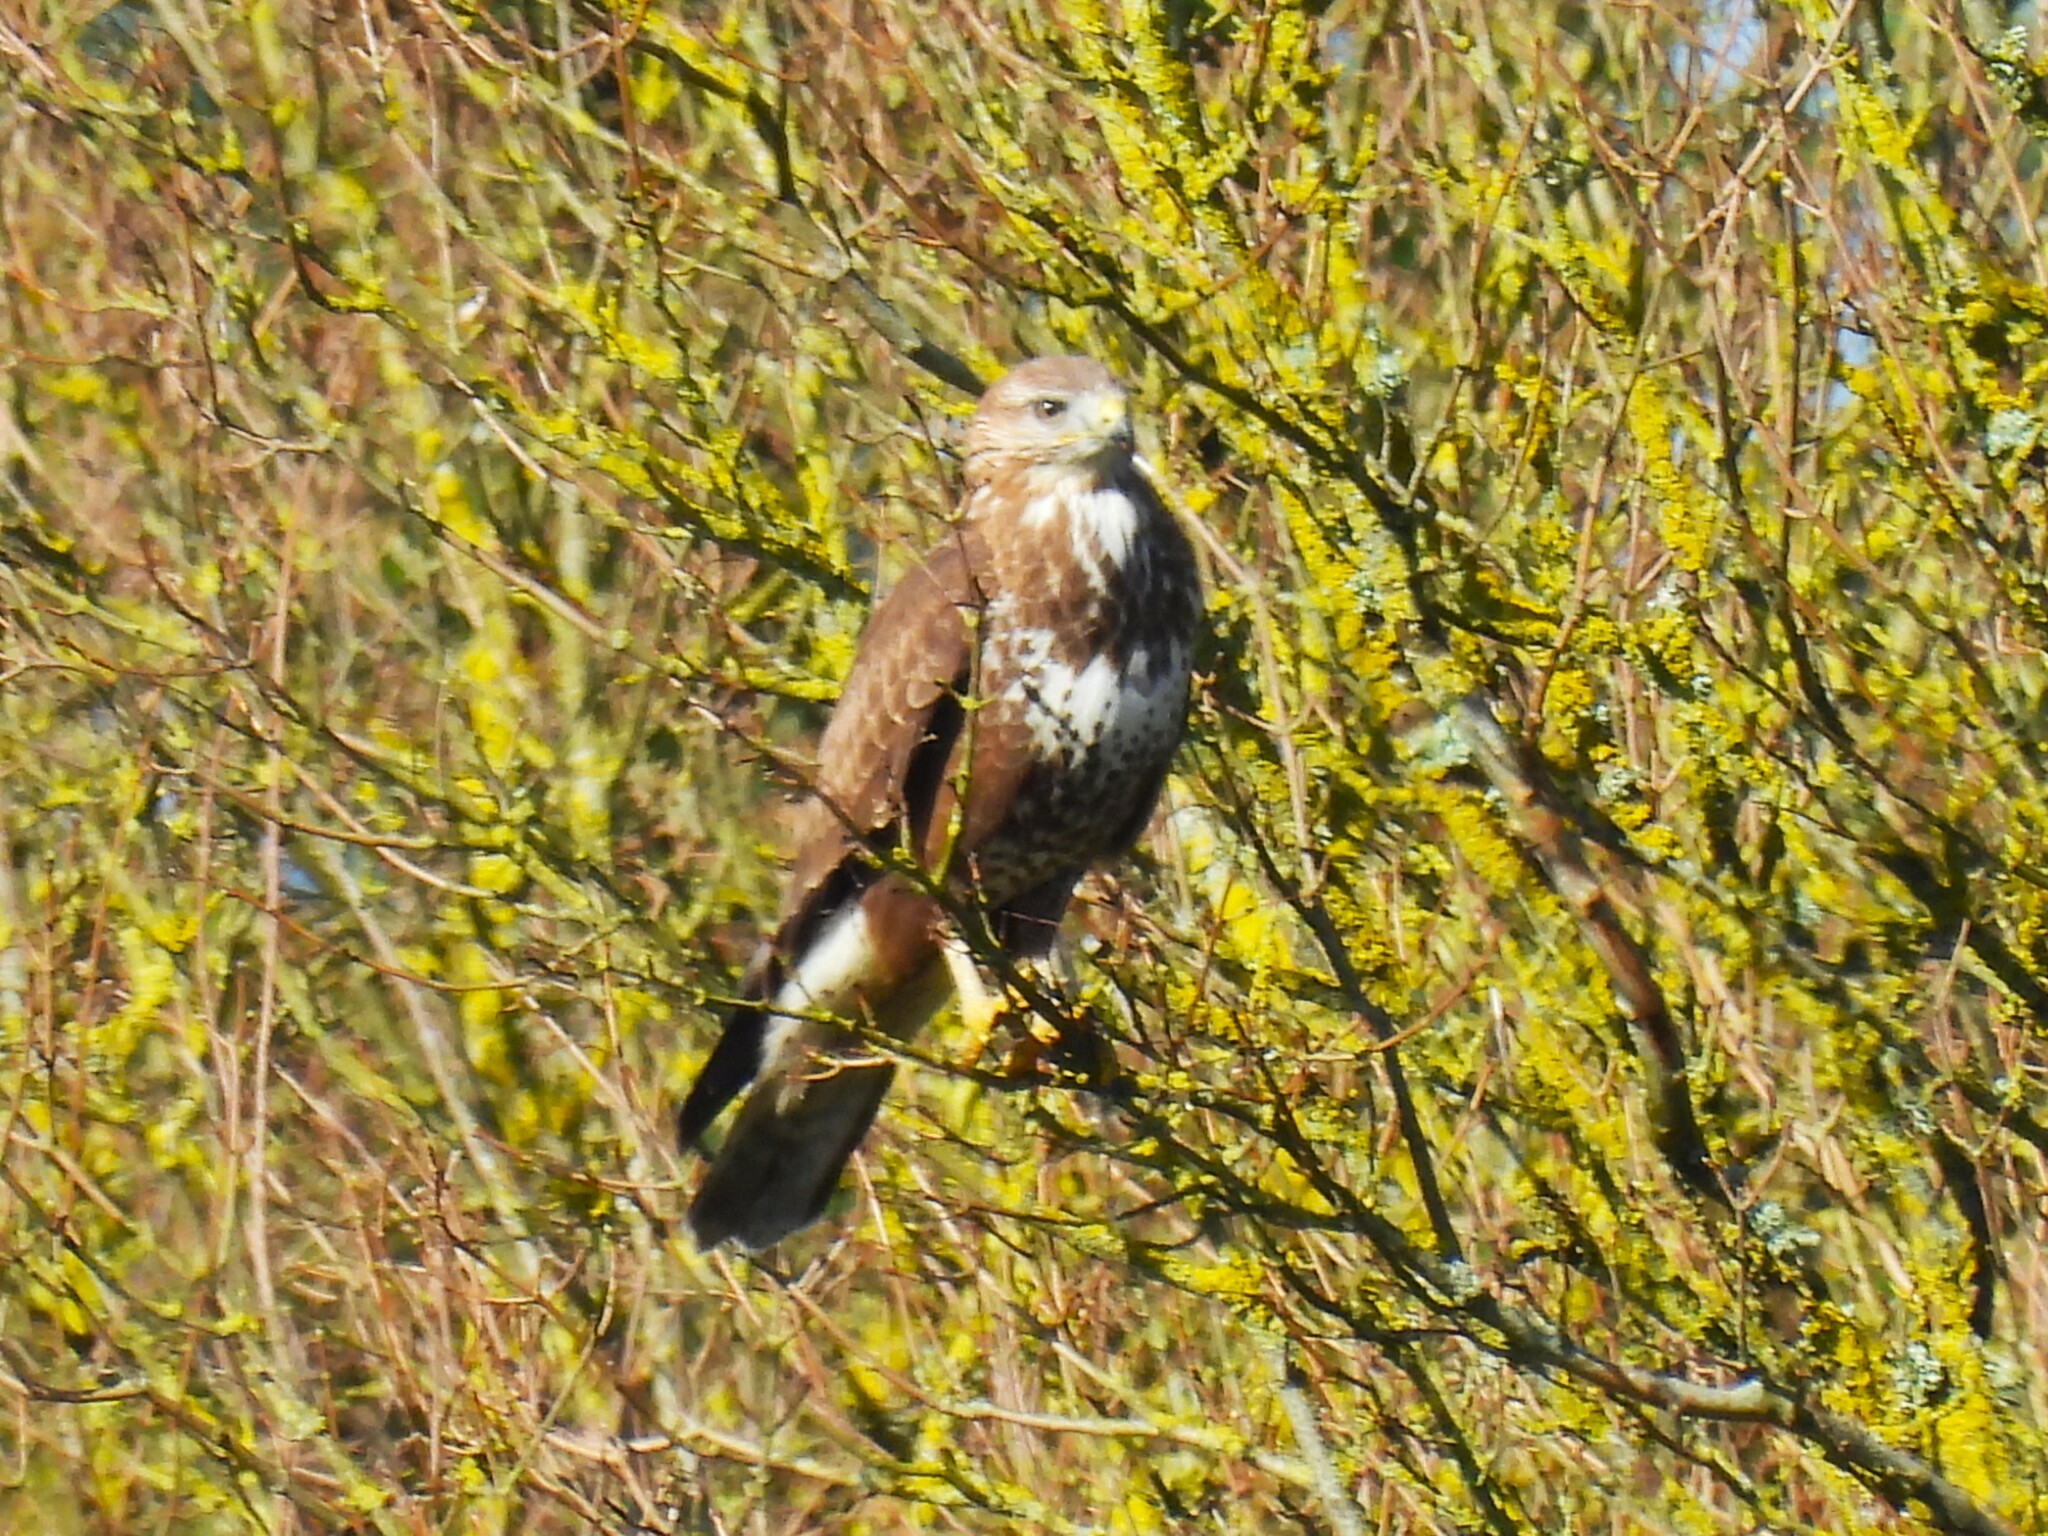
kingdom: Animalia
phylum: Chordata
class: Aves
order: Accipitriformes
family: Accipitridae
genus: Buteo
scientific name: Buteo buteo
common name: Common buzzard
